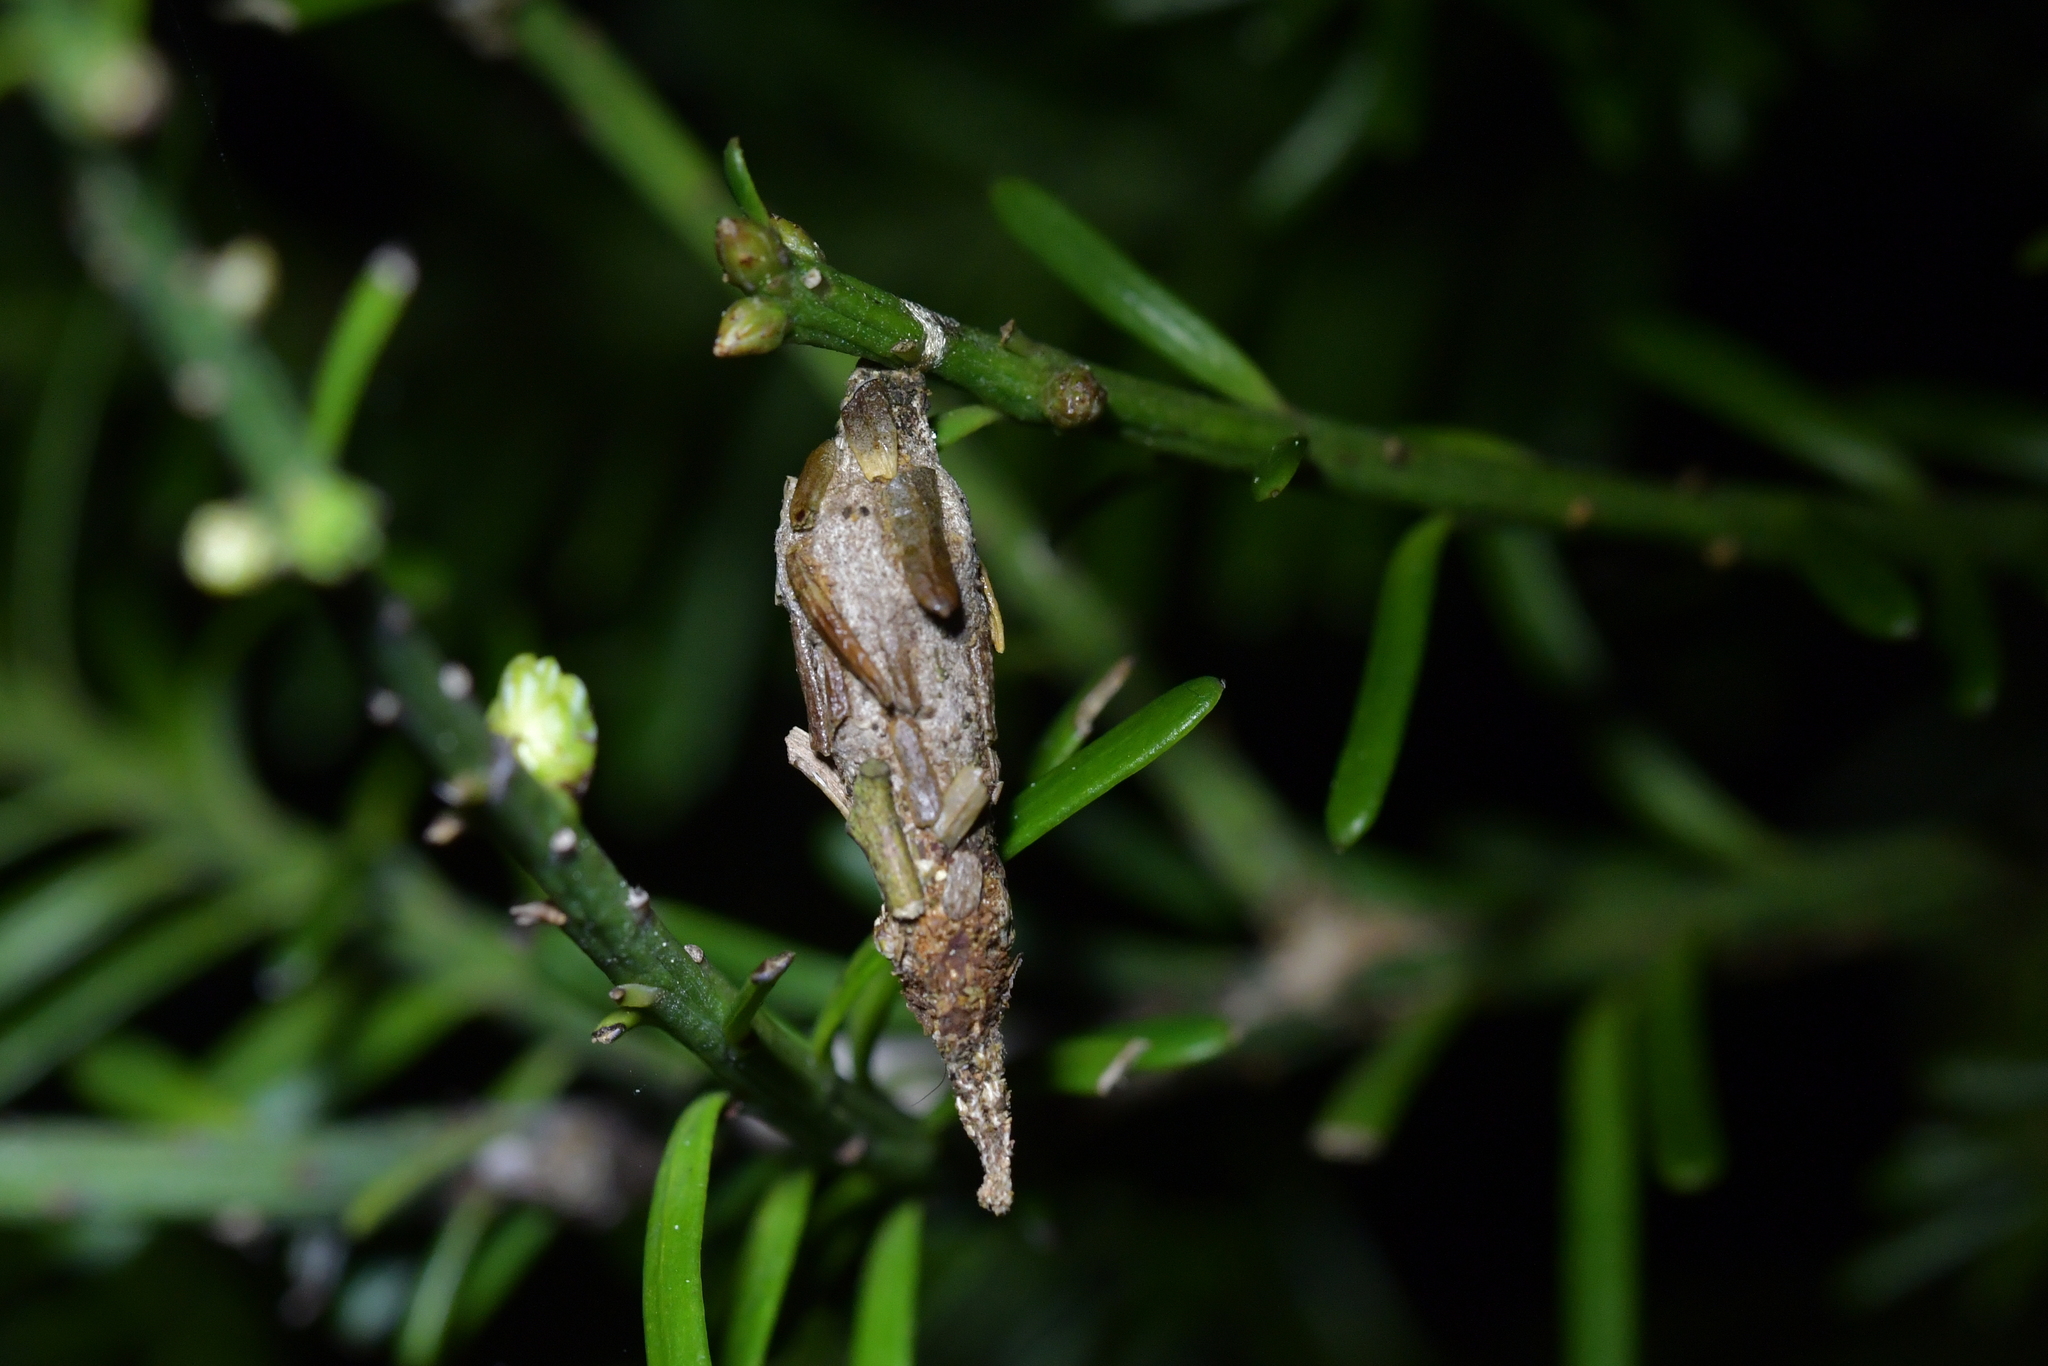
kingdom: Animalia
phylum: Arthropoda
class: Insecta
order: Lepidoptera
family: Psychidae
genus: Liothula
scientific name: Liothula omnivora
